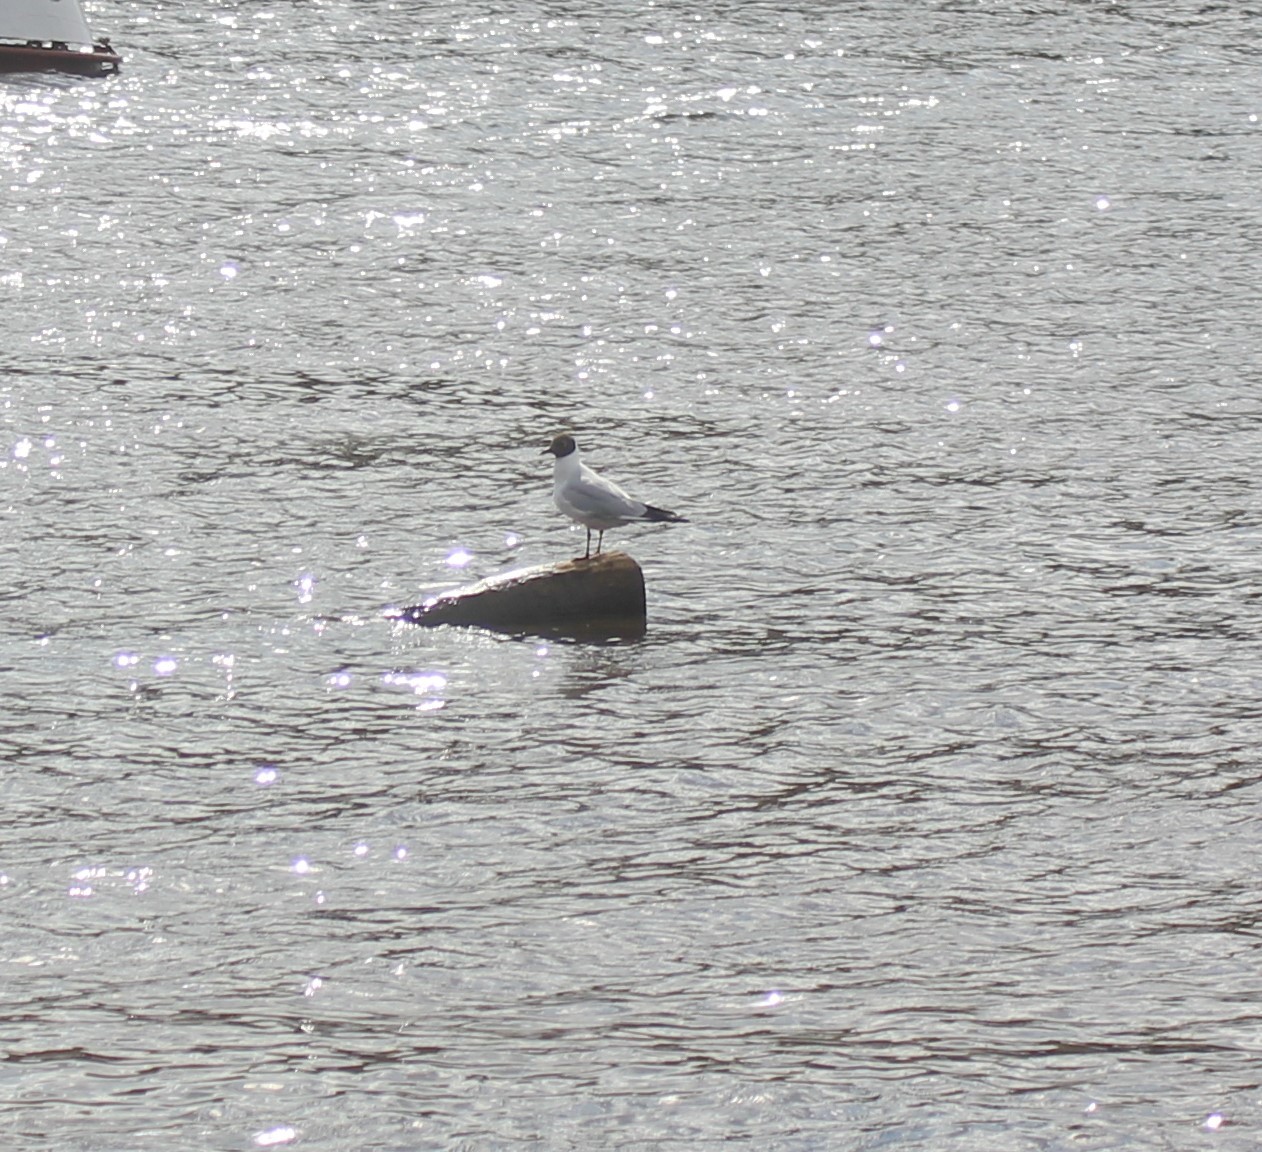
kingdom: Animalia
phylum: Chordata
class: Aves
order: Charadriiformes
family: Laridae
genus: Chroicocephalus
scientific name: Chroicocephalus ridibundus
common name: Black-headed gull
